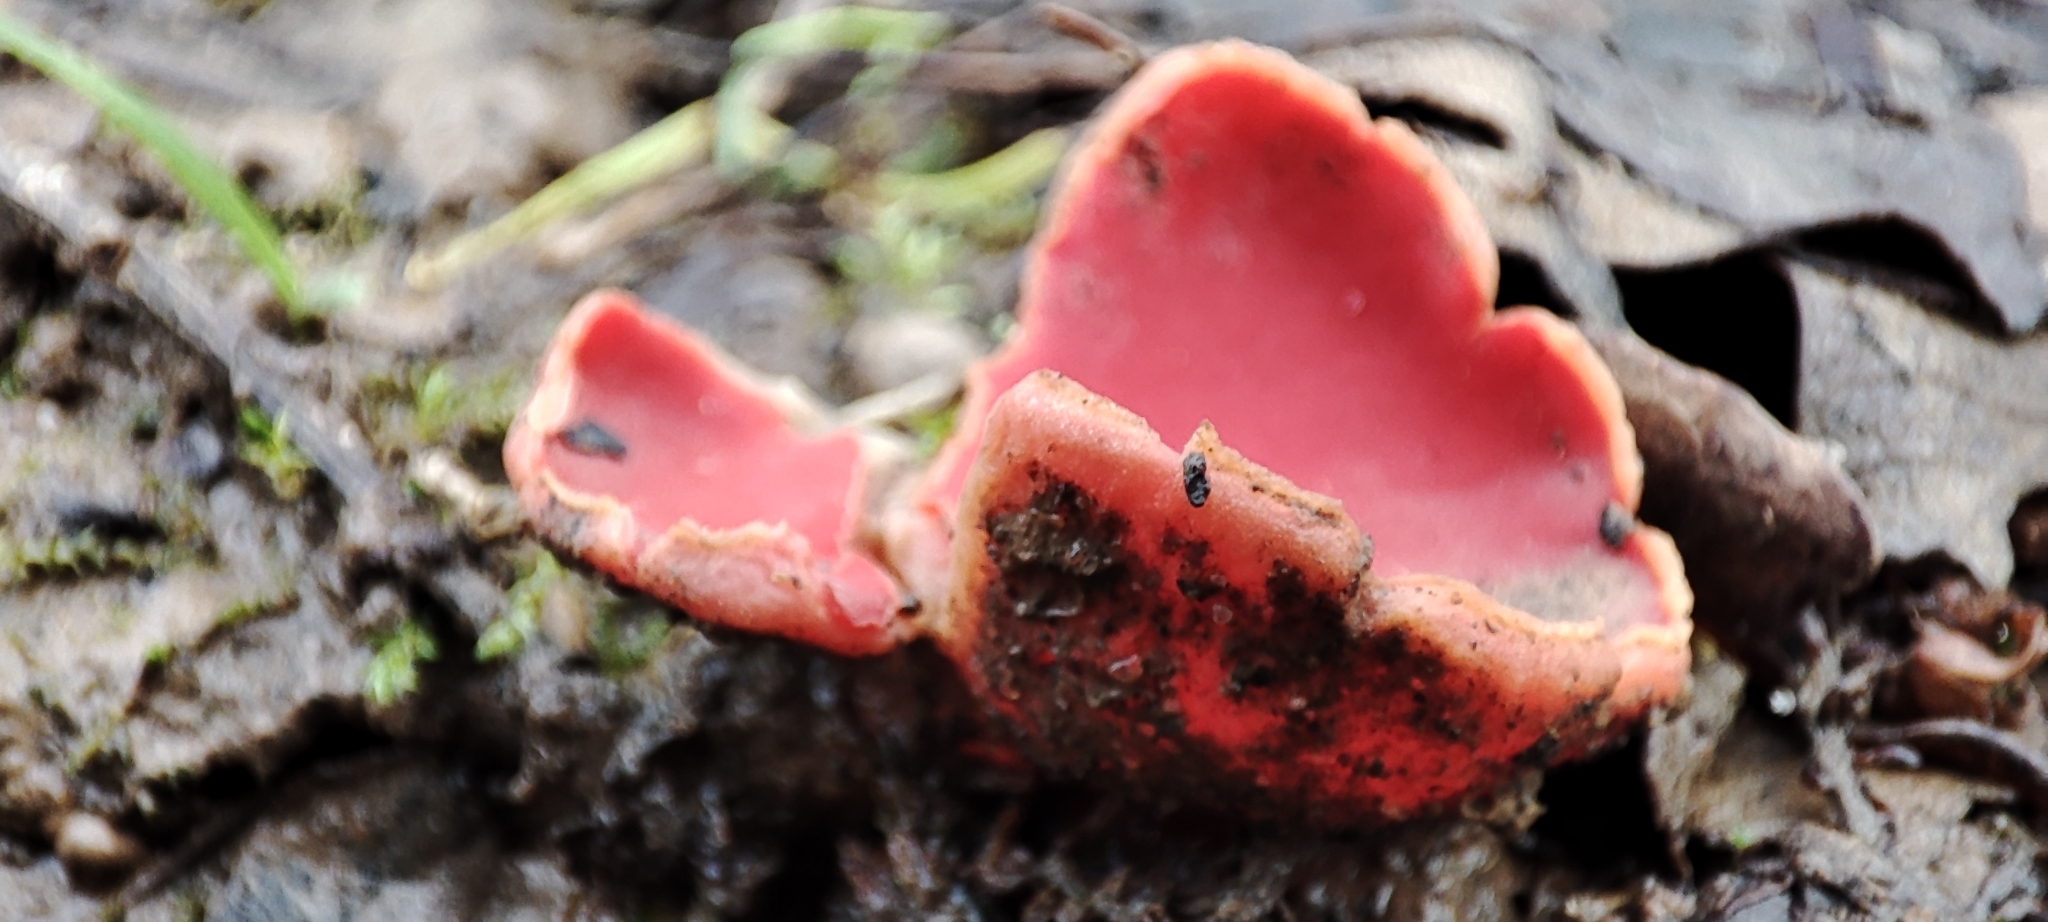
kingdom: Fungi
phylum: Ascomycota
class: Pezizomycetes
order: Pezizales
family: Sarcoscyphaceae
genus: Sarcoscypha
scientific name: Sarcoscypha
